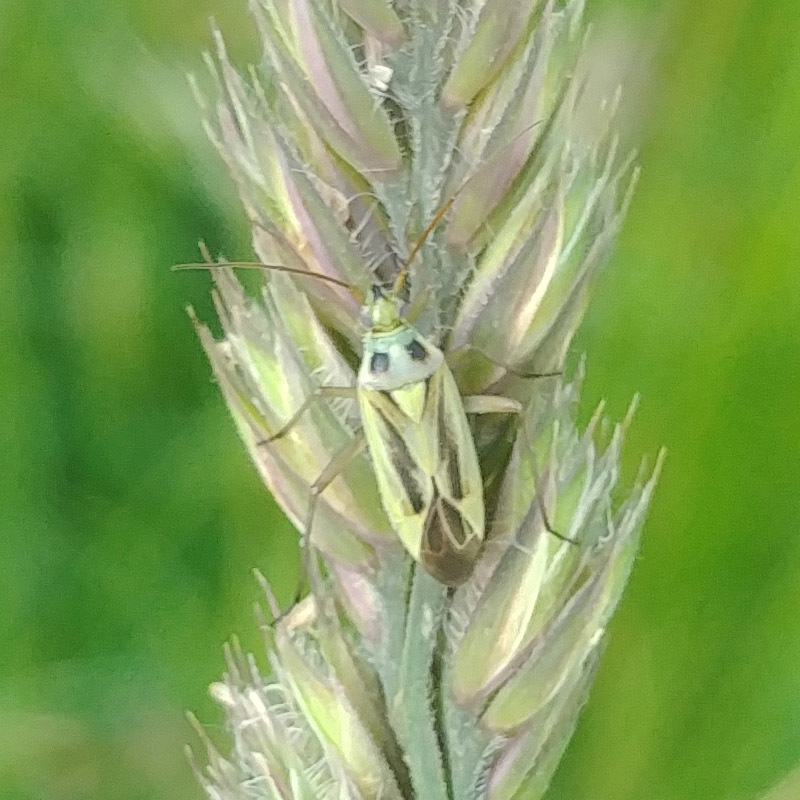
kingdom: Animalia
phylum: Arthropoda
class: Insecta
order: Hemiptera
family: Miridae
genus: Stenotus
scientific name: Stenotus binotatus
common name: Plant bug
